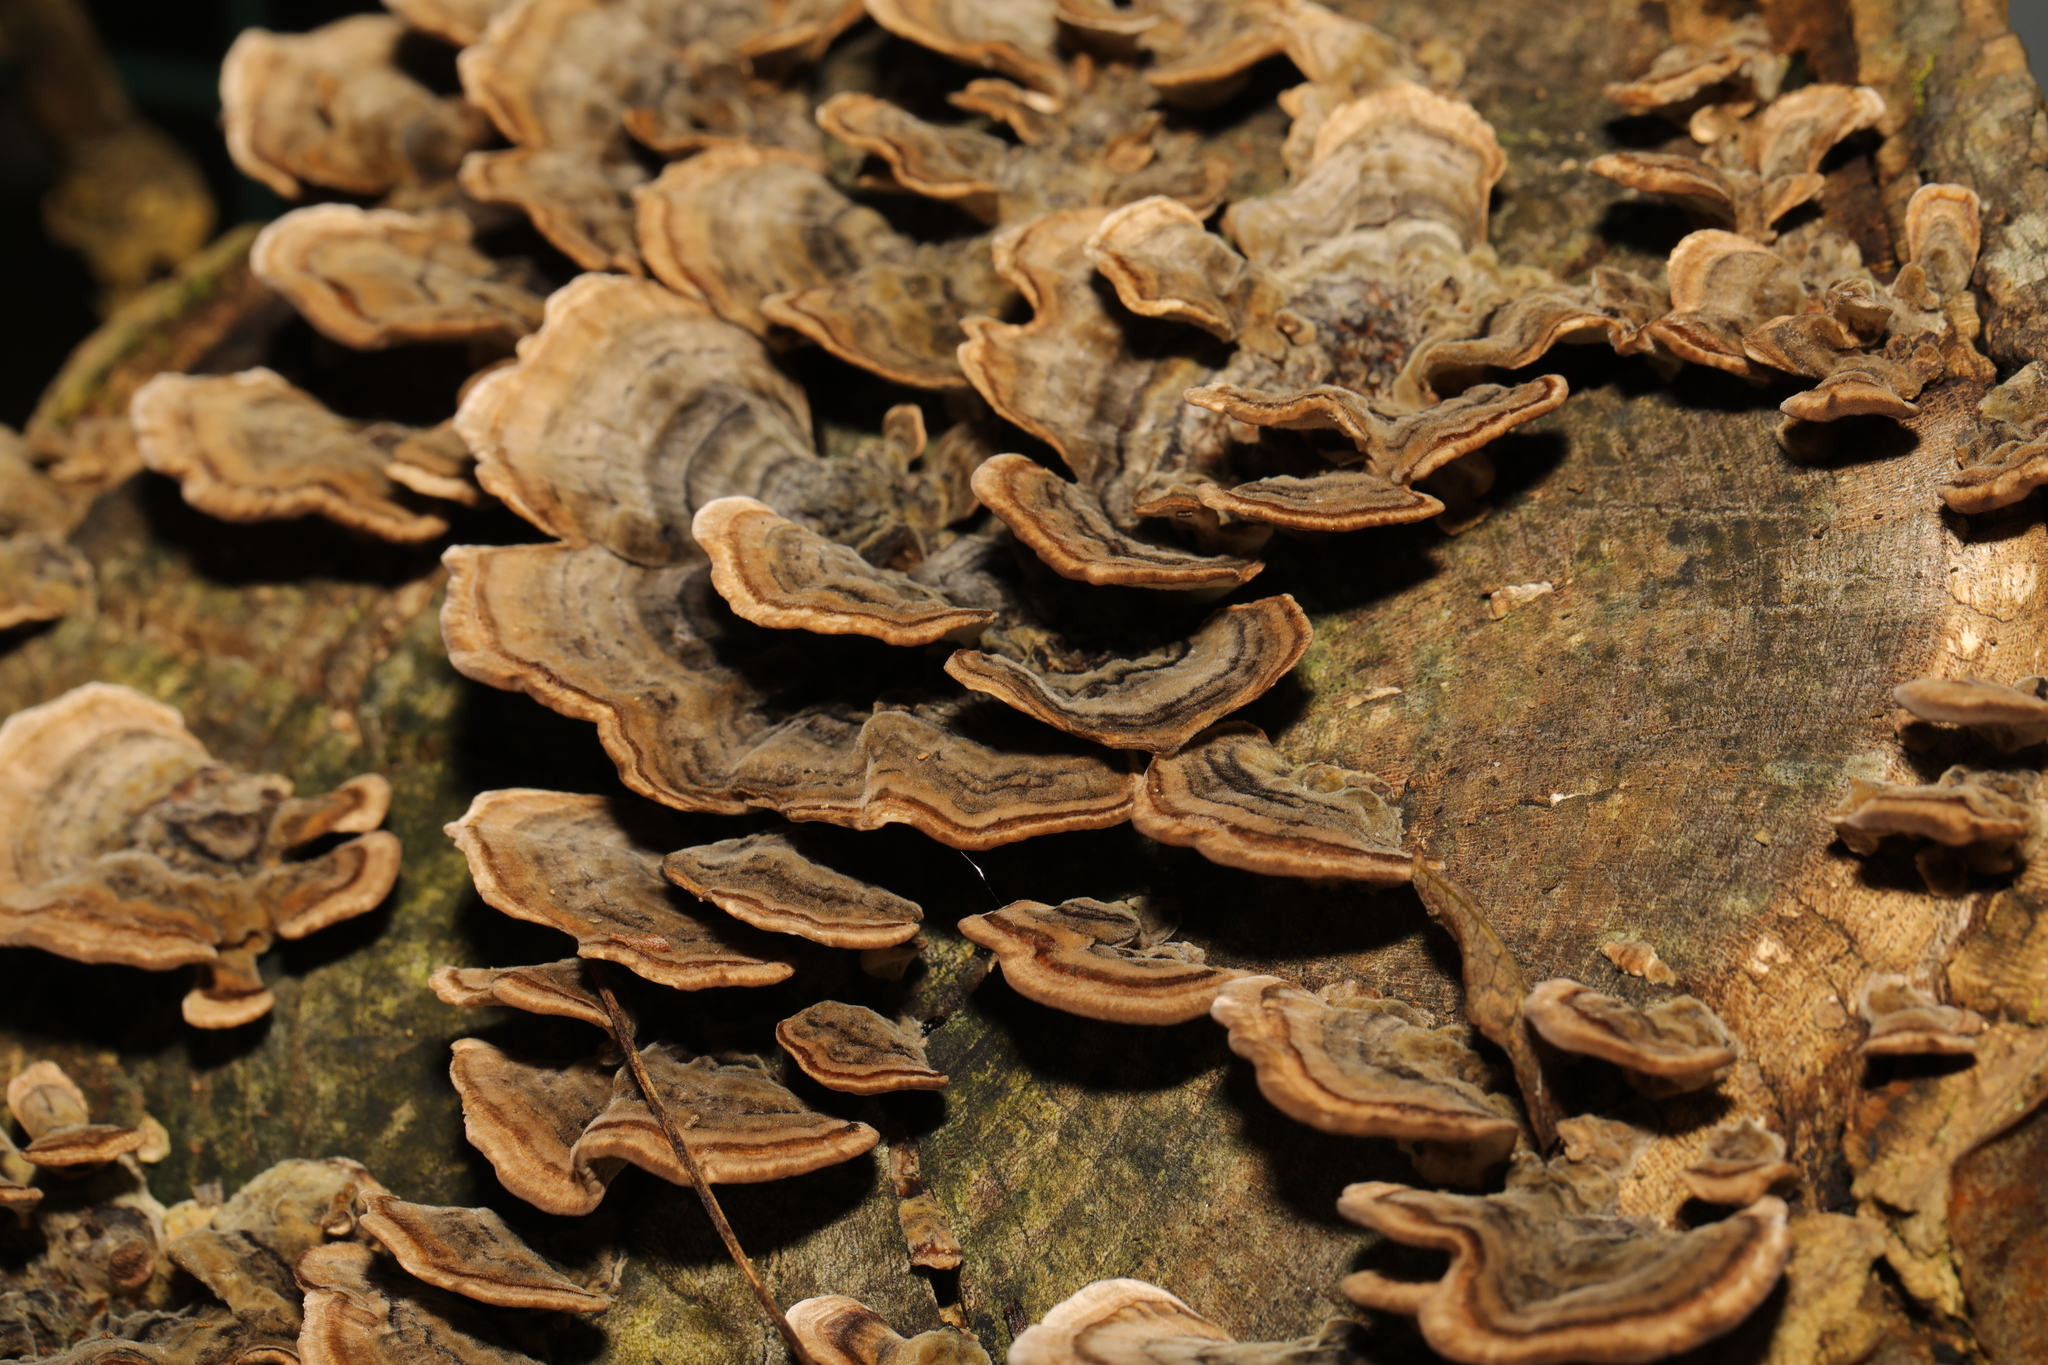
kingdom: Fungi
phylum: Basidiomycota
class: Agaricomycetes
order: Polyporales
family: Polyporaceae
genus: Trametes
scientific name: Trametes versicolor
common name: Turkeytail
